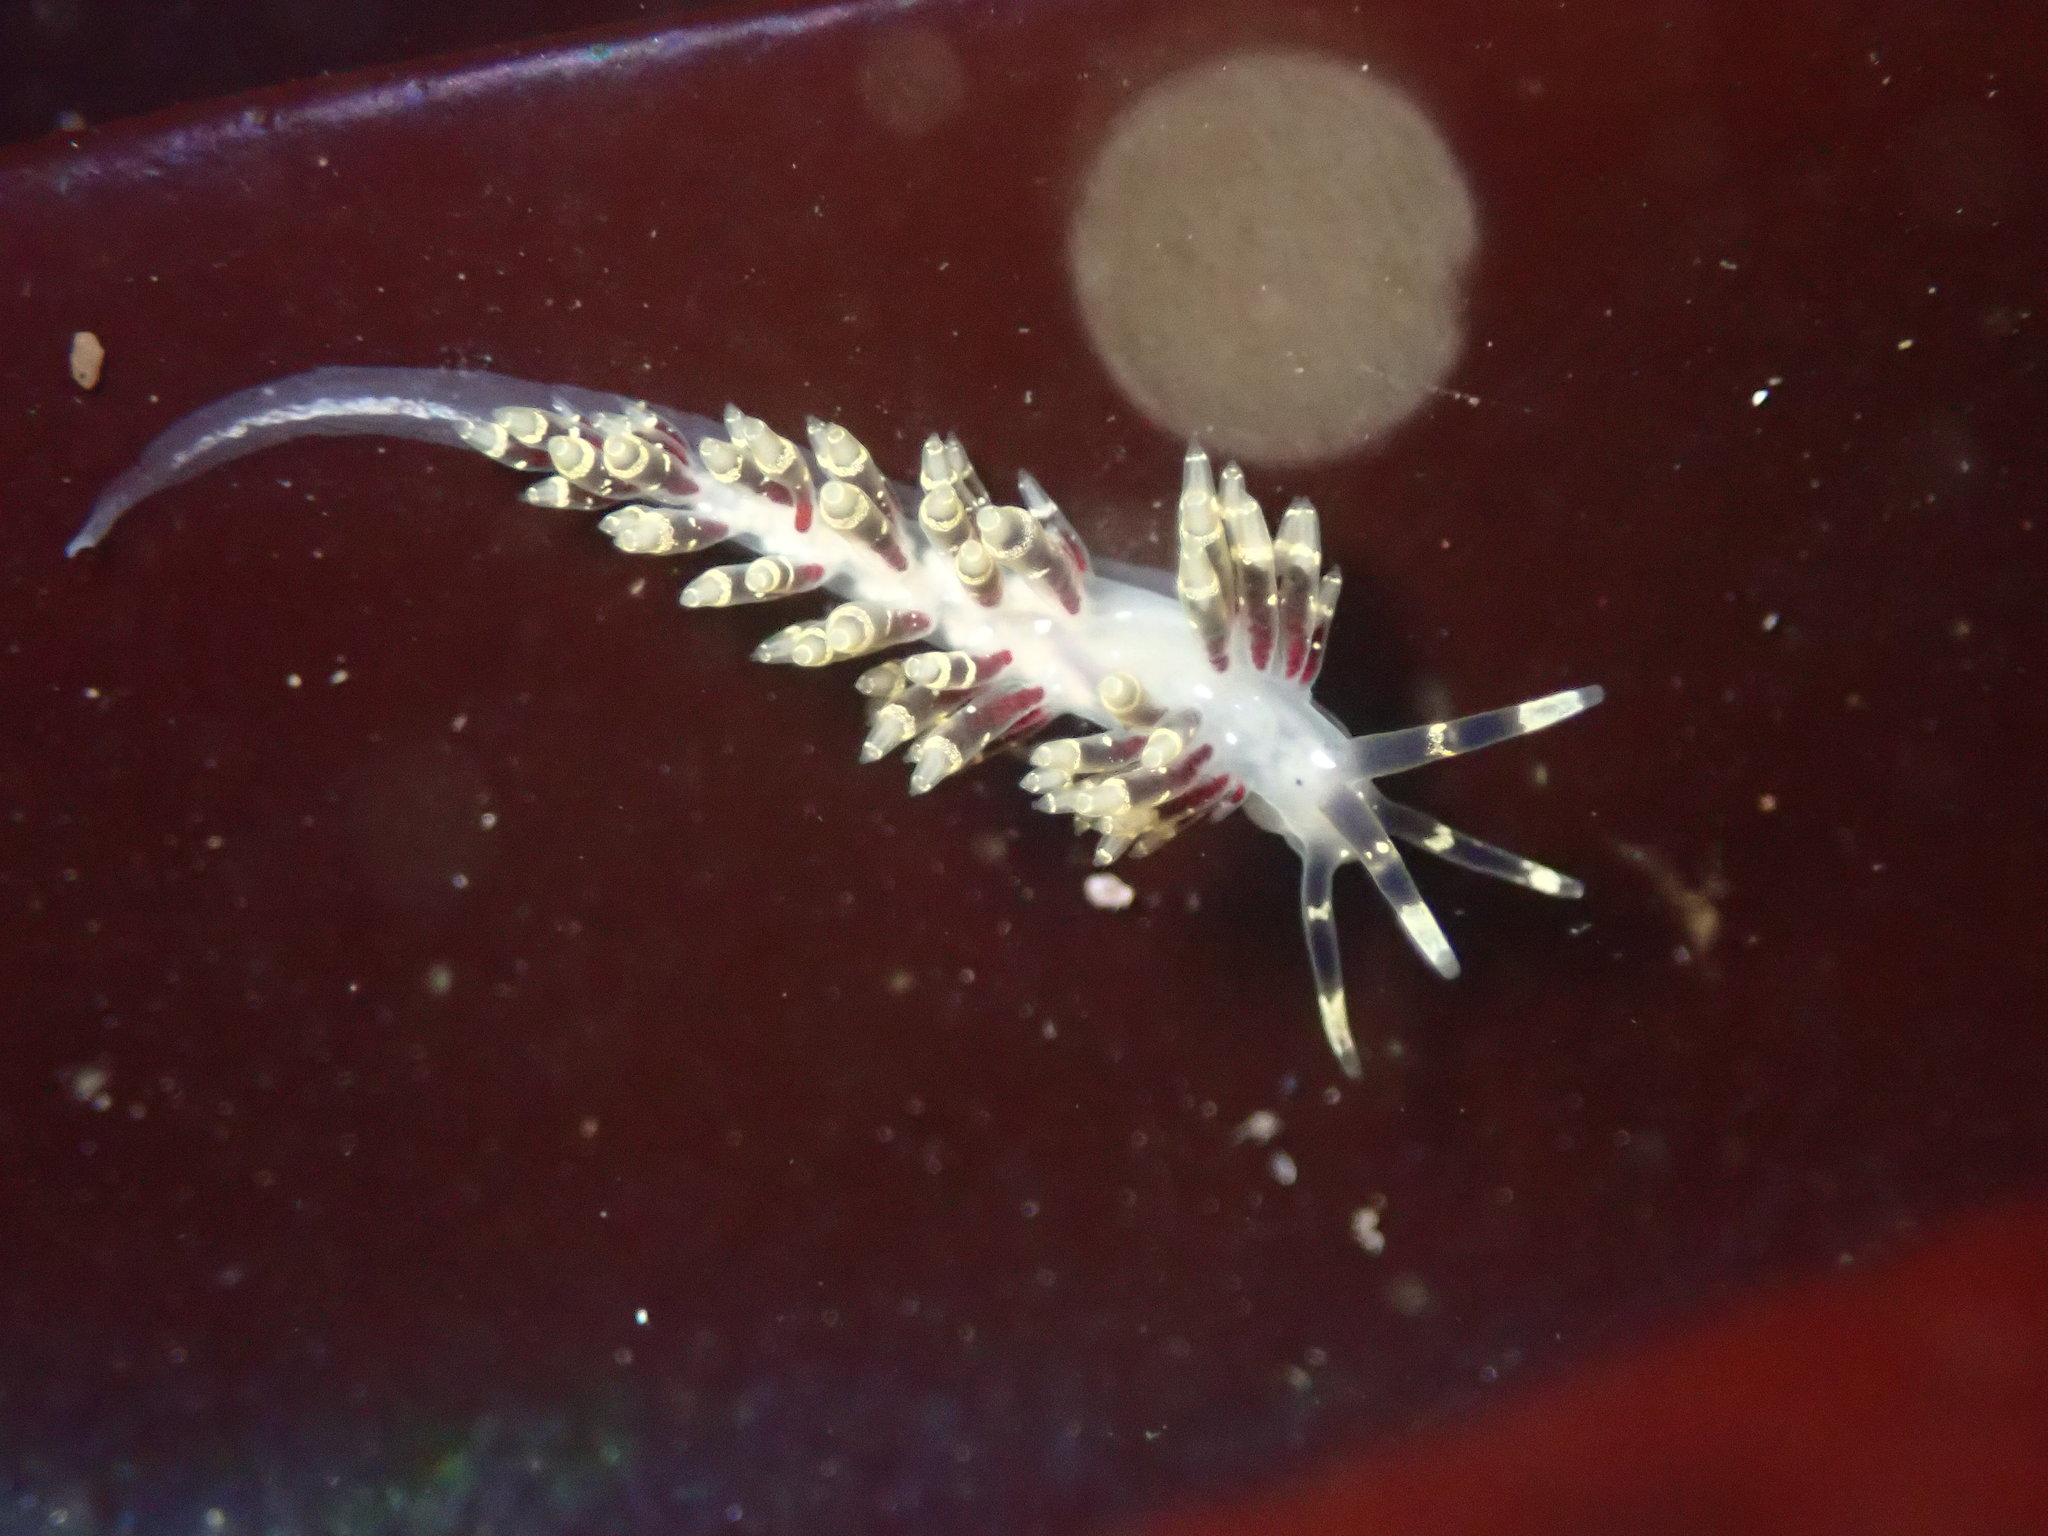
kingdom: Animalia
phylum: Mollusca
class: Gastropoda
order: Nudibranchia
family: Abronicidae
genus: Abronica
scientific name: Abronica abronia
